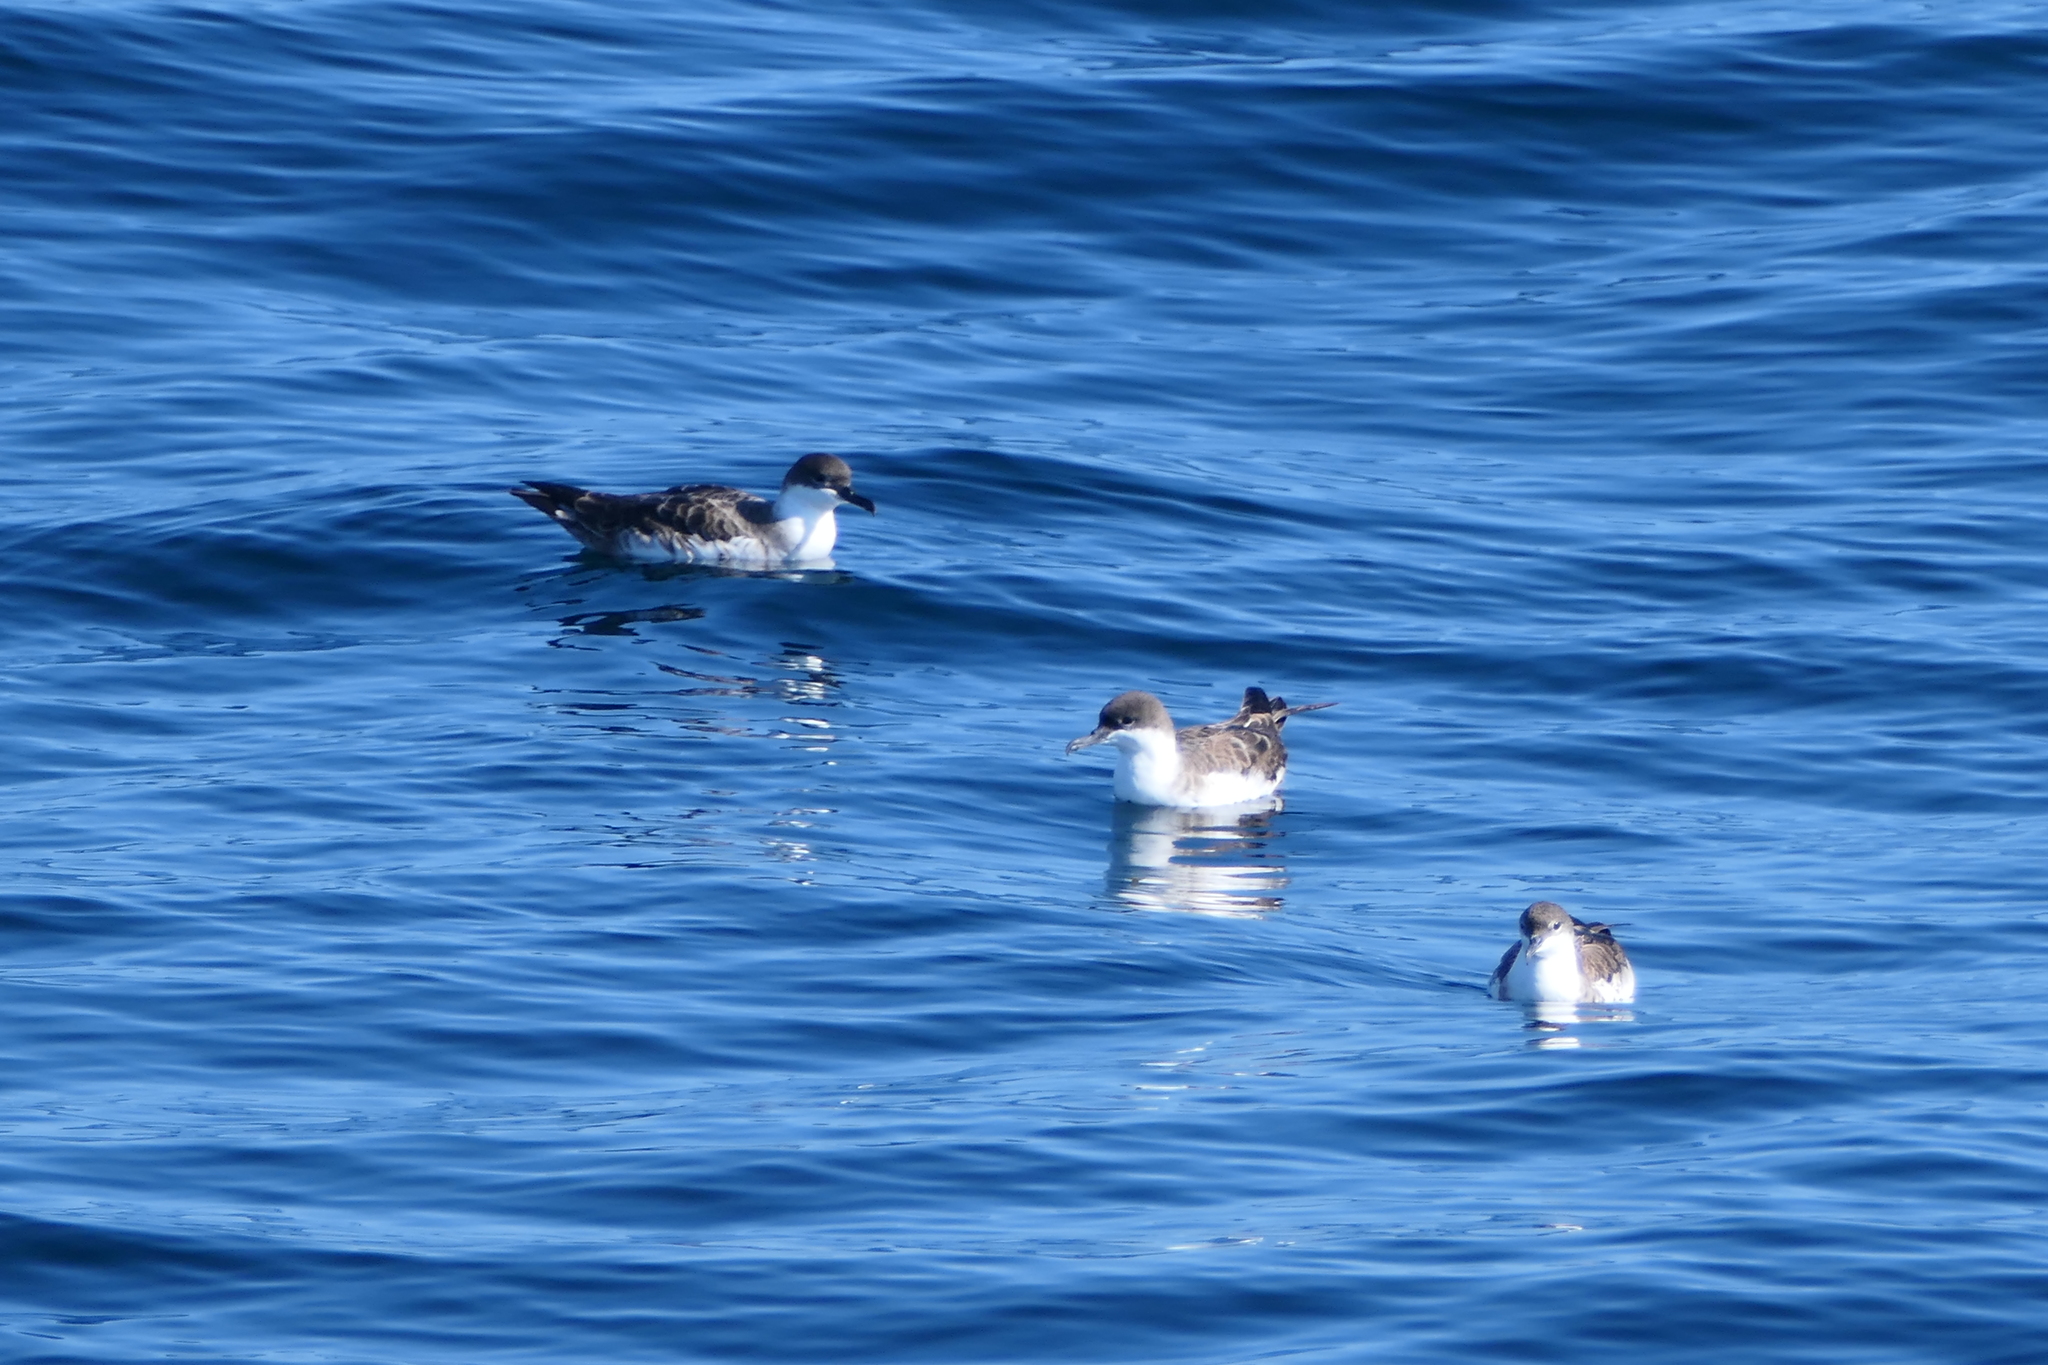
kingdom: Animalia
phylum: Chordata
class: Aves
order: Procellariiformes
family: Procellariidae
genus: Puffinus
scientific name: Puffinus gravis
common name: Great shearwater
